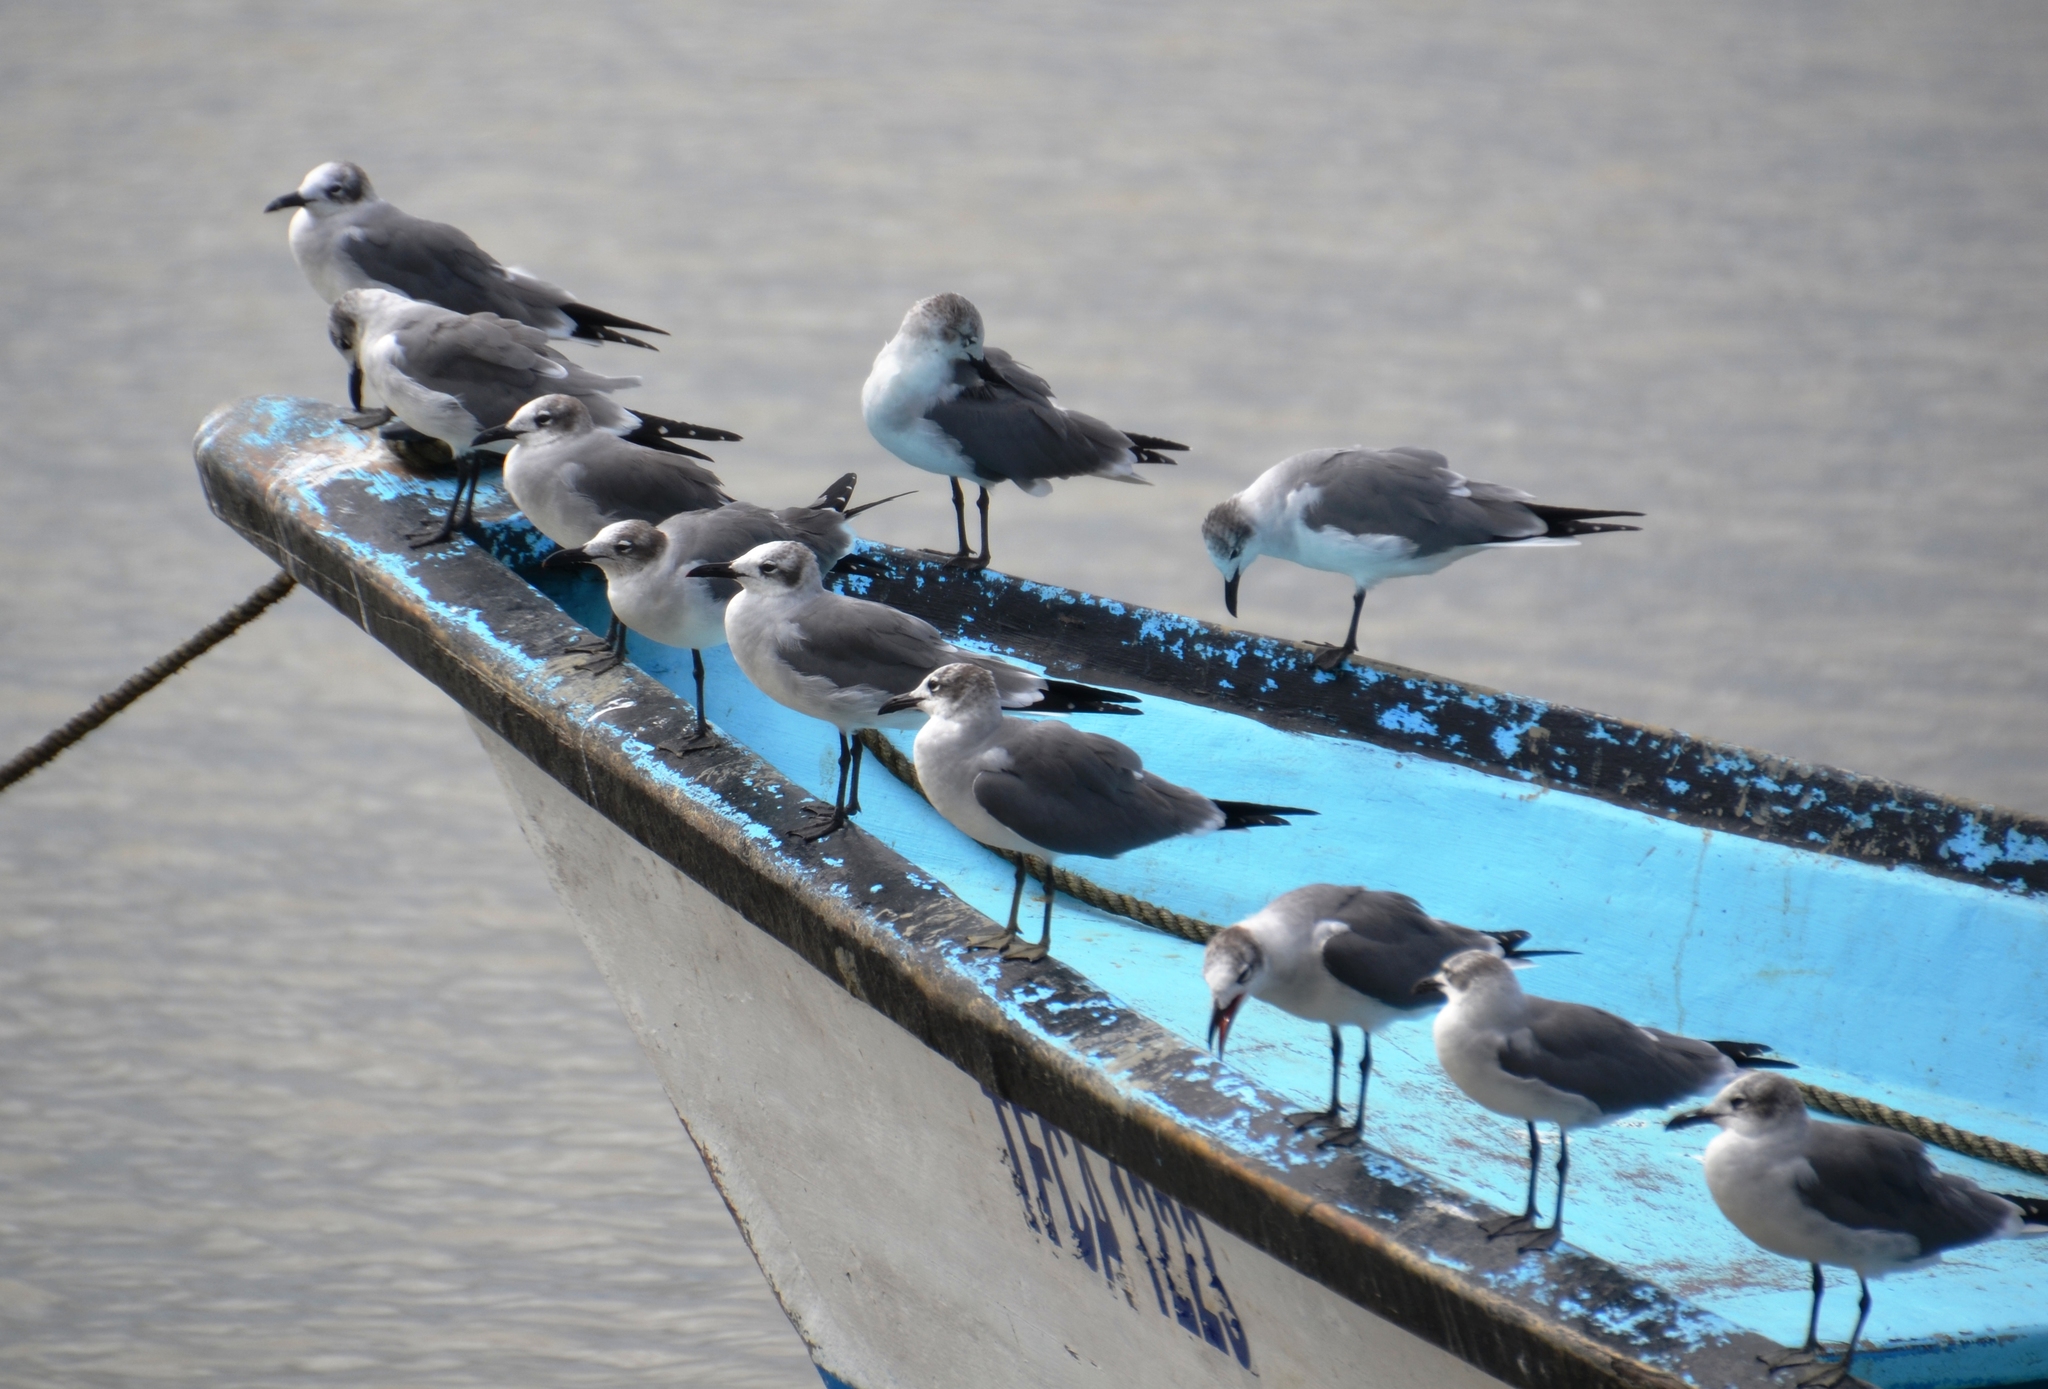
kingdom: Animalia
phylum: Chordata
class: Aves
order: Charadriiformes
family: Laridae
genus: Leucophaeus
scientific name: Leucophaeus atricilla
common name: Laughing gull
